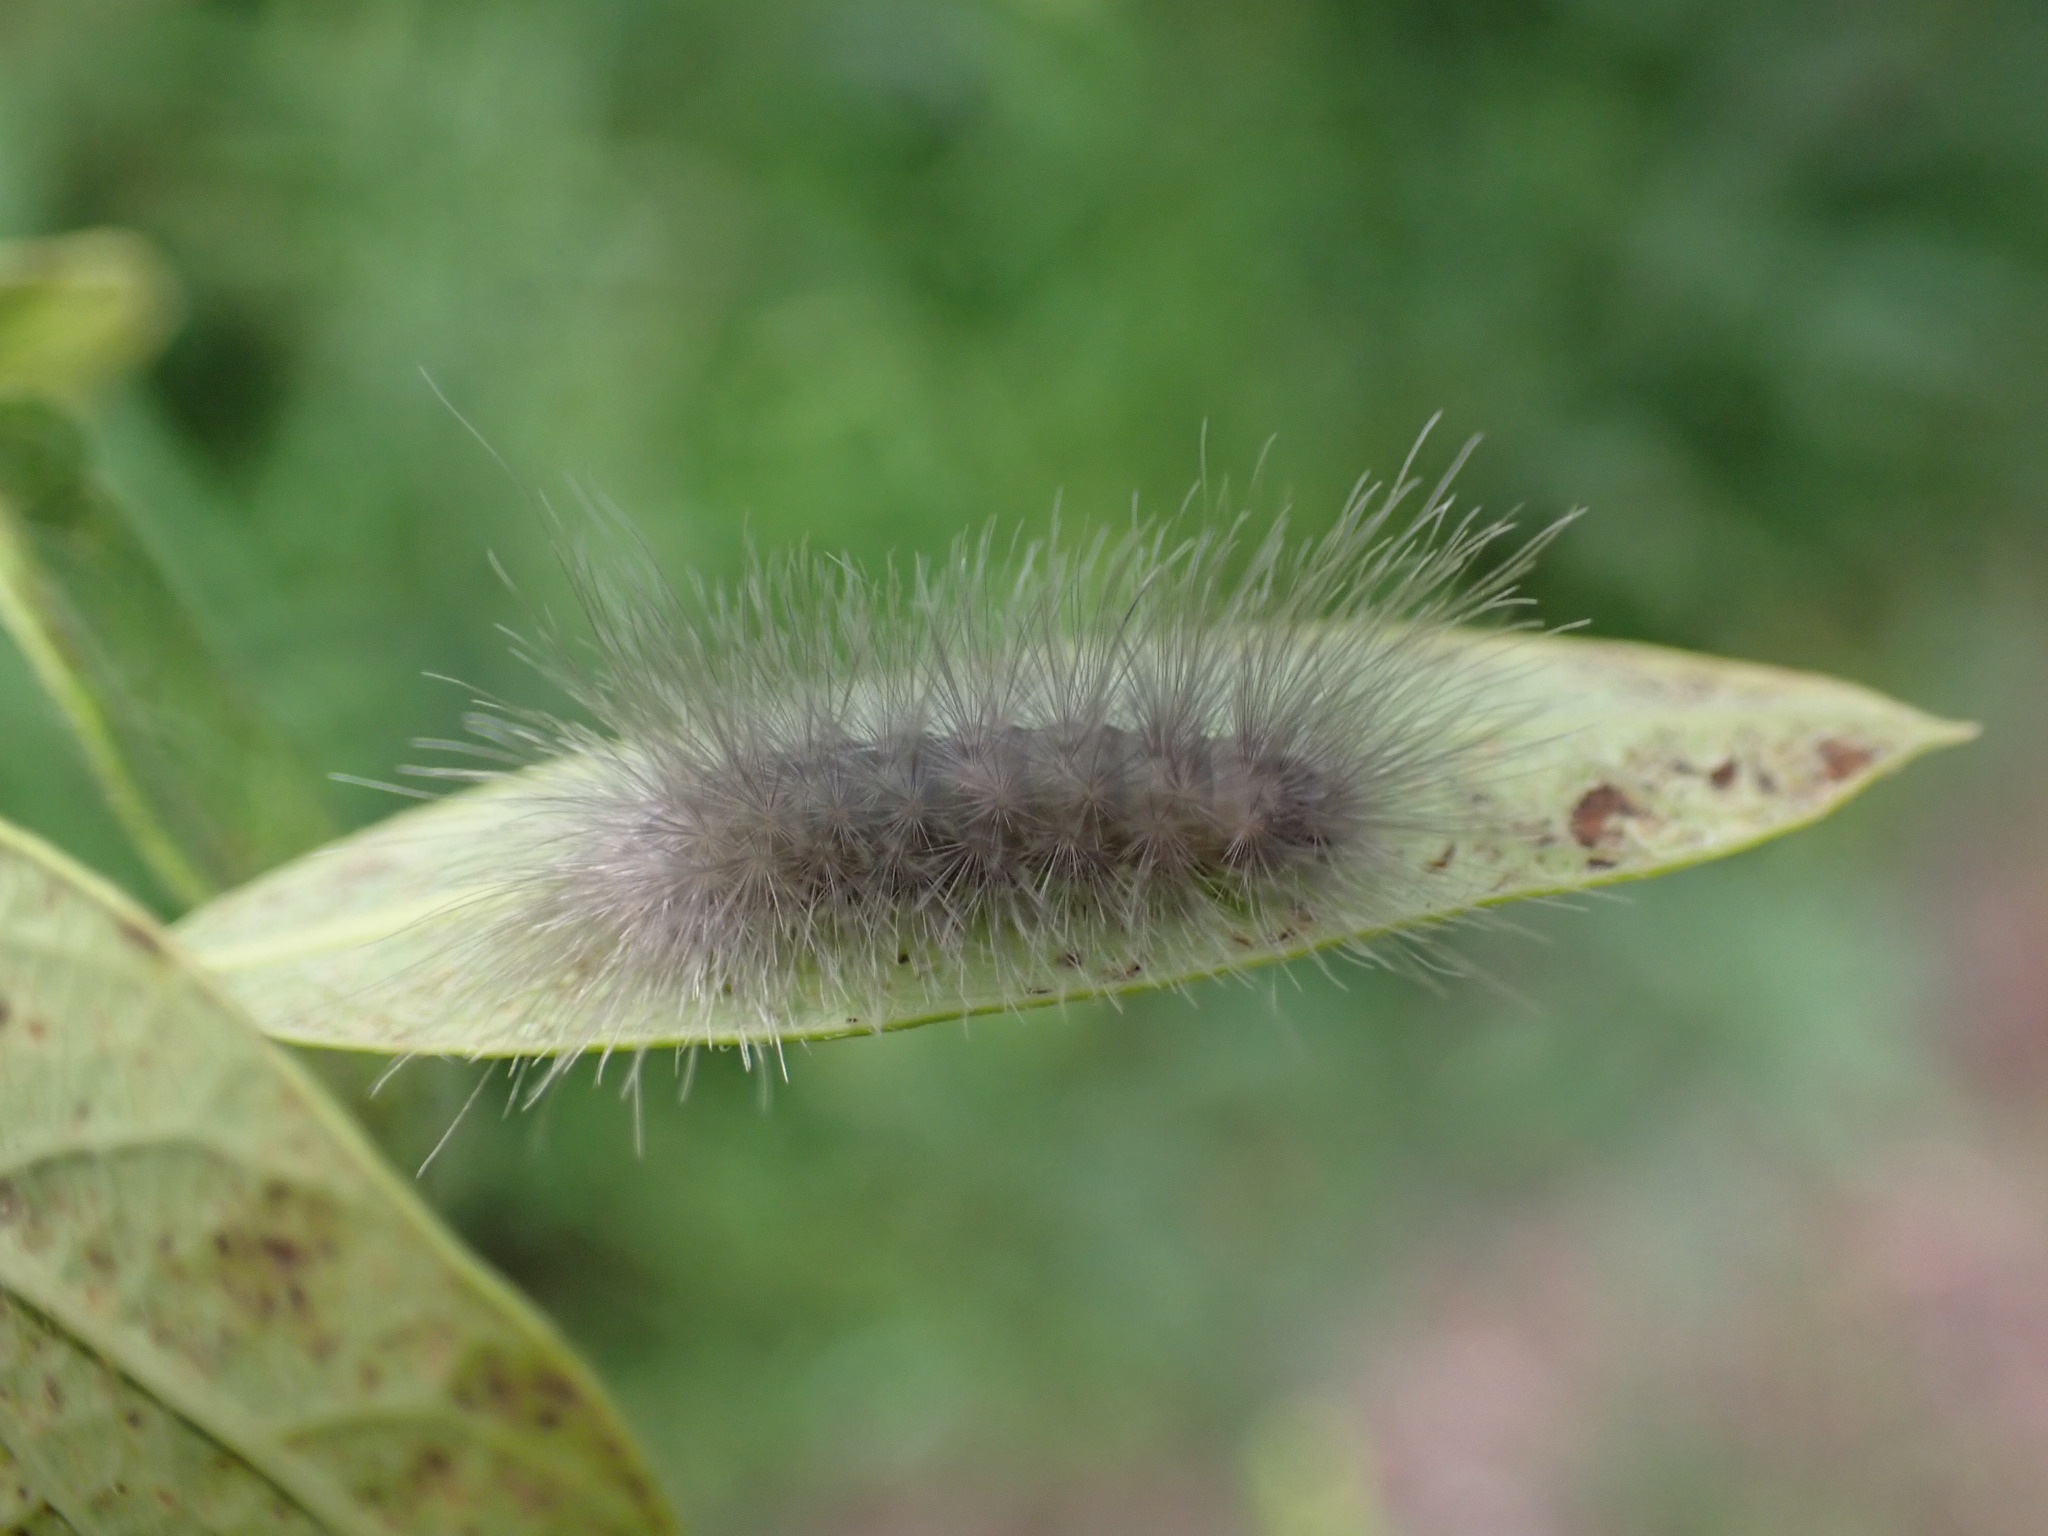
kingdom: Animalia
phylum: Arthropoda
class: Insecta
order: Lepidoptera
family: Erebidae
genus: Cycnia
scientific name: Cycnia tenera
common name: Delicate cycnia moth
